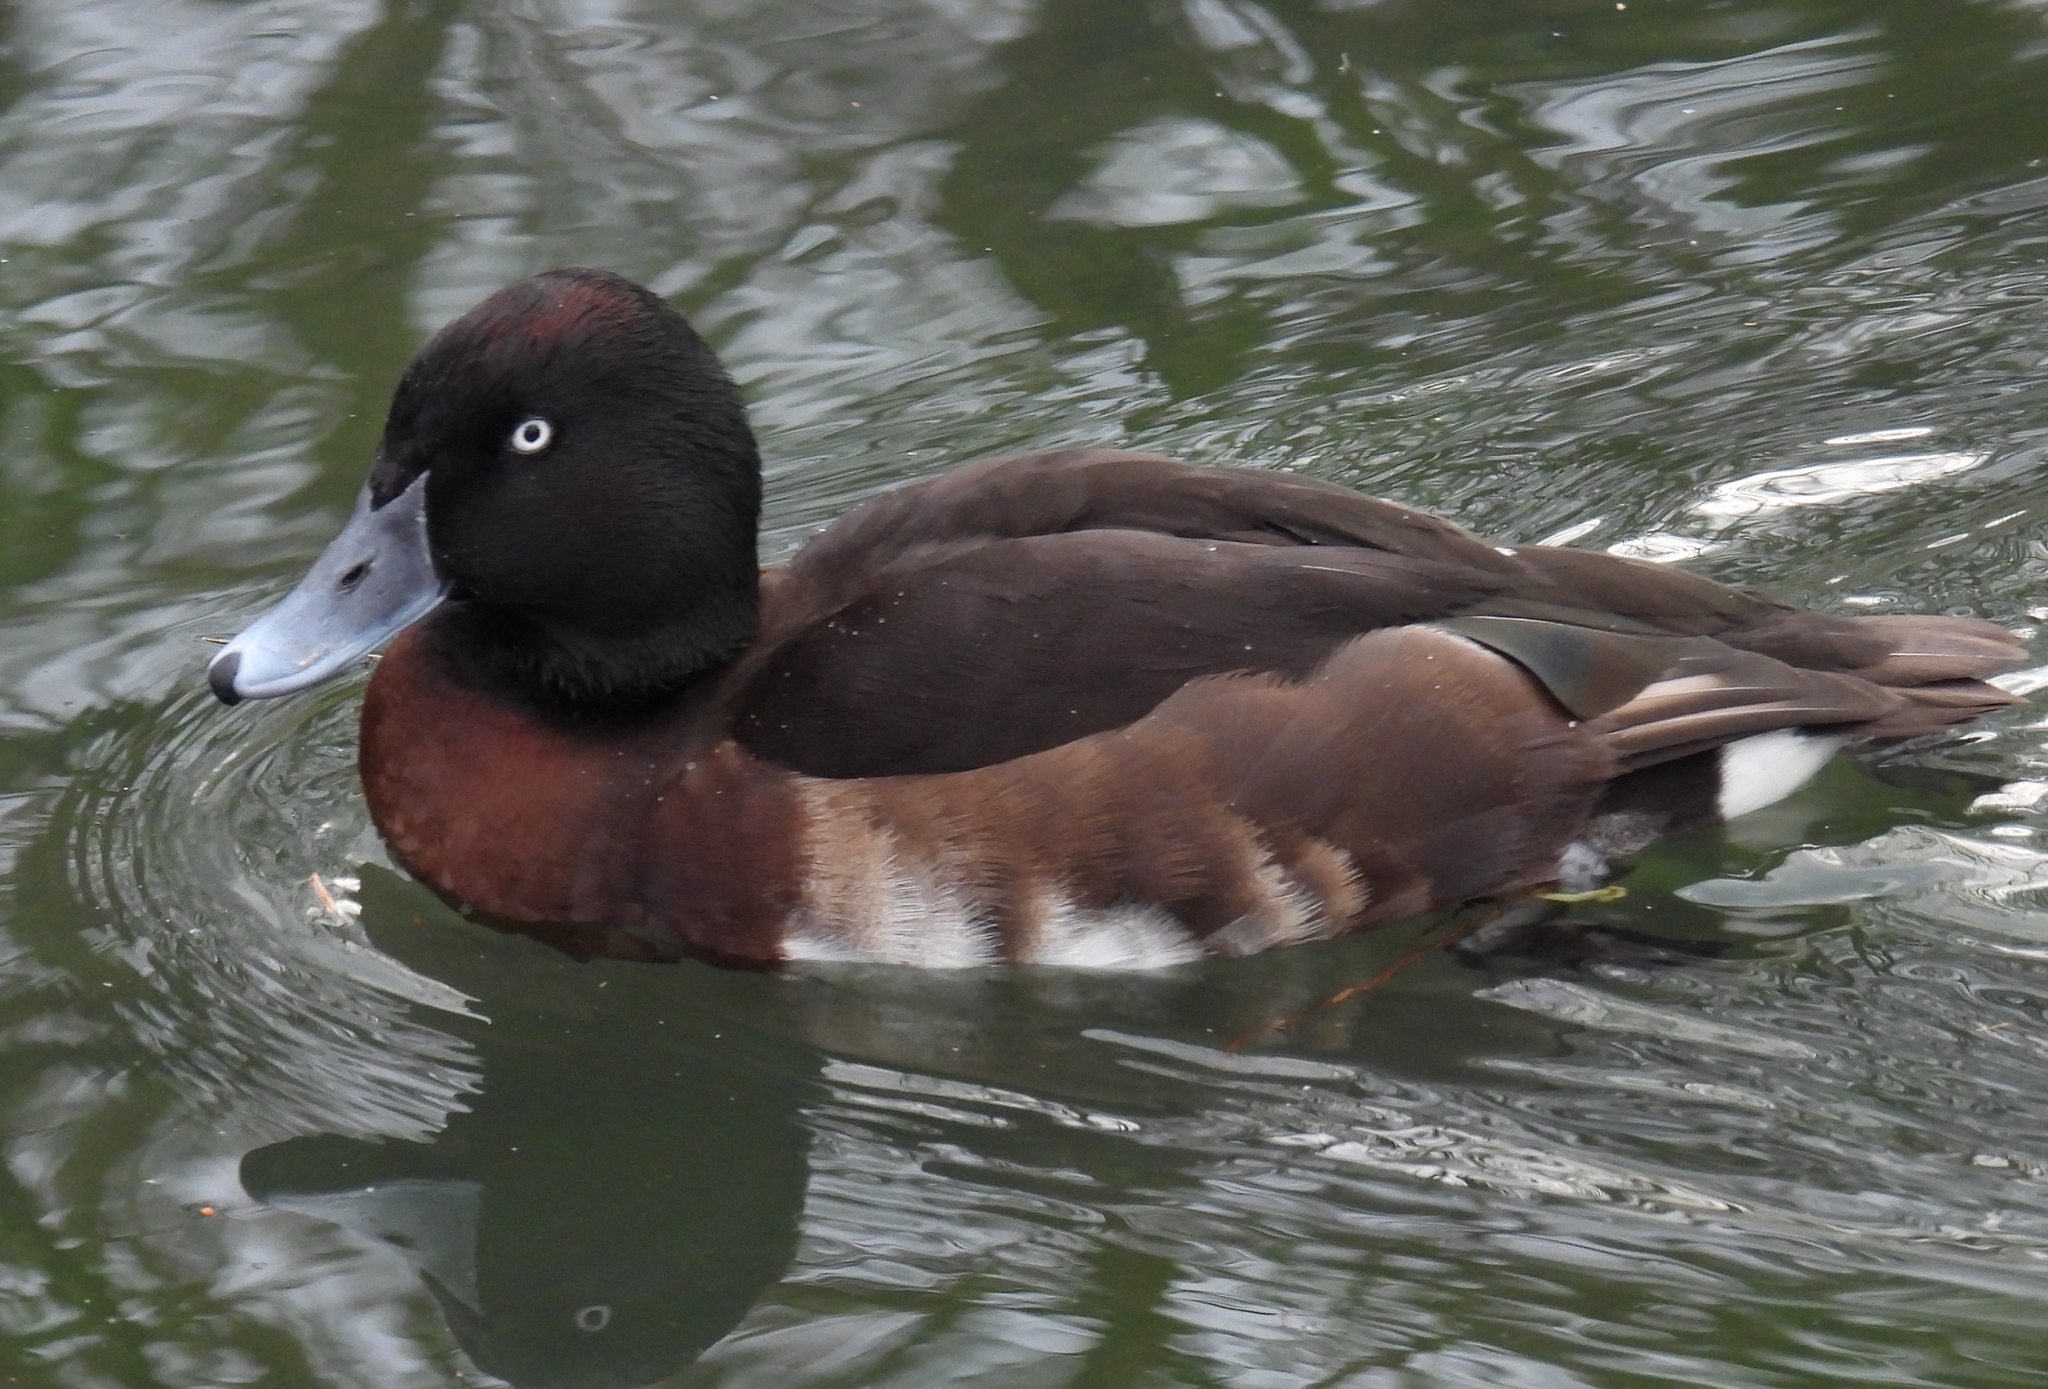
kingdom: Animalia
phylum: Chordata
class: Aves
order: Anseriformes
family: Anatidae
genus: Aythya
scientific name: Aythya
